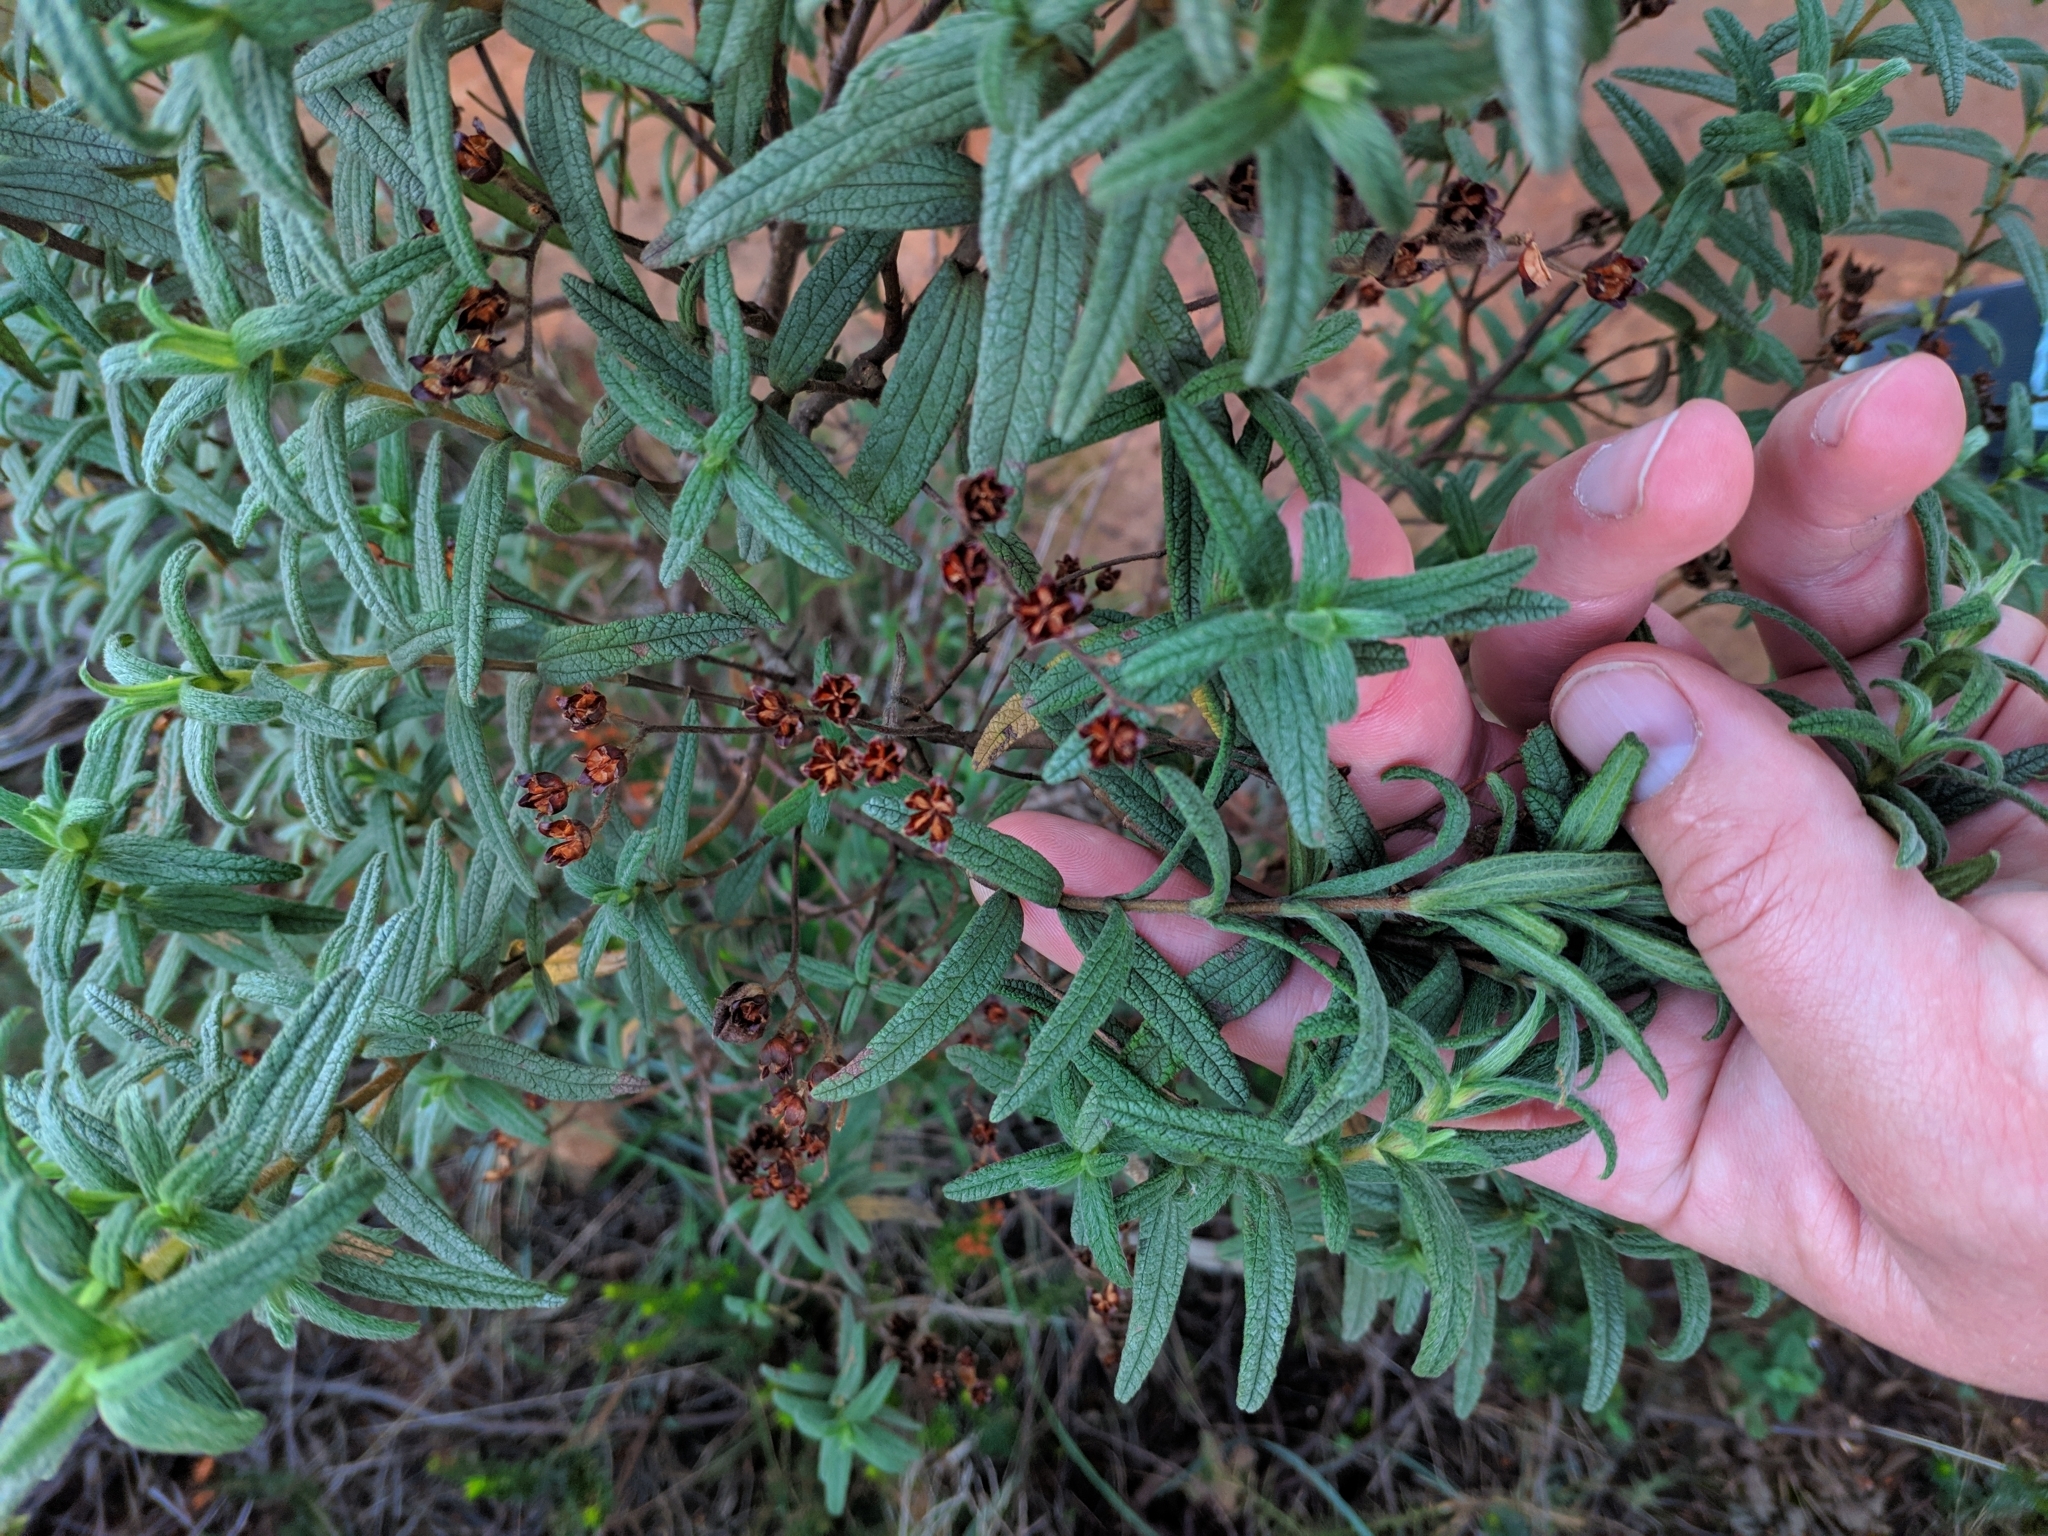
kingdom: Plantae
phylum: Tracheophyta
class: Magnoliopsida
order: Malvales
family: Cistaceae
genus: Cistus
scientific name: Cistus monspeliensis
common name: Montpelier cistus
